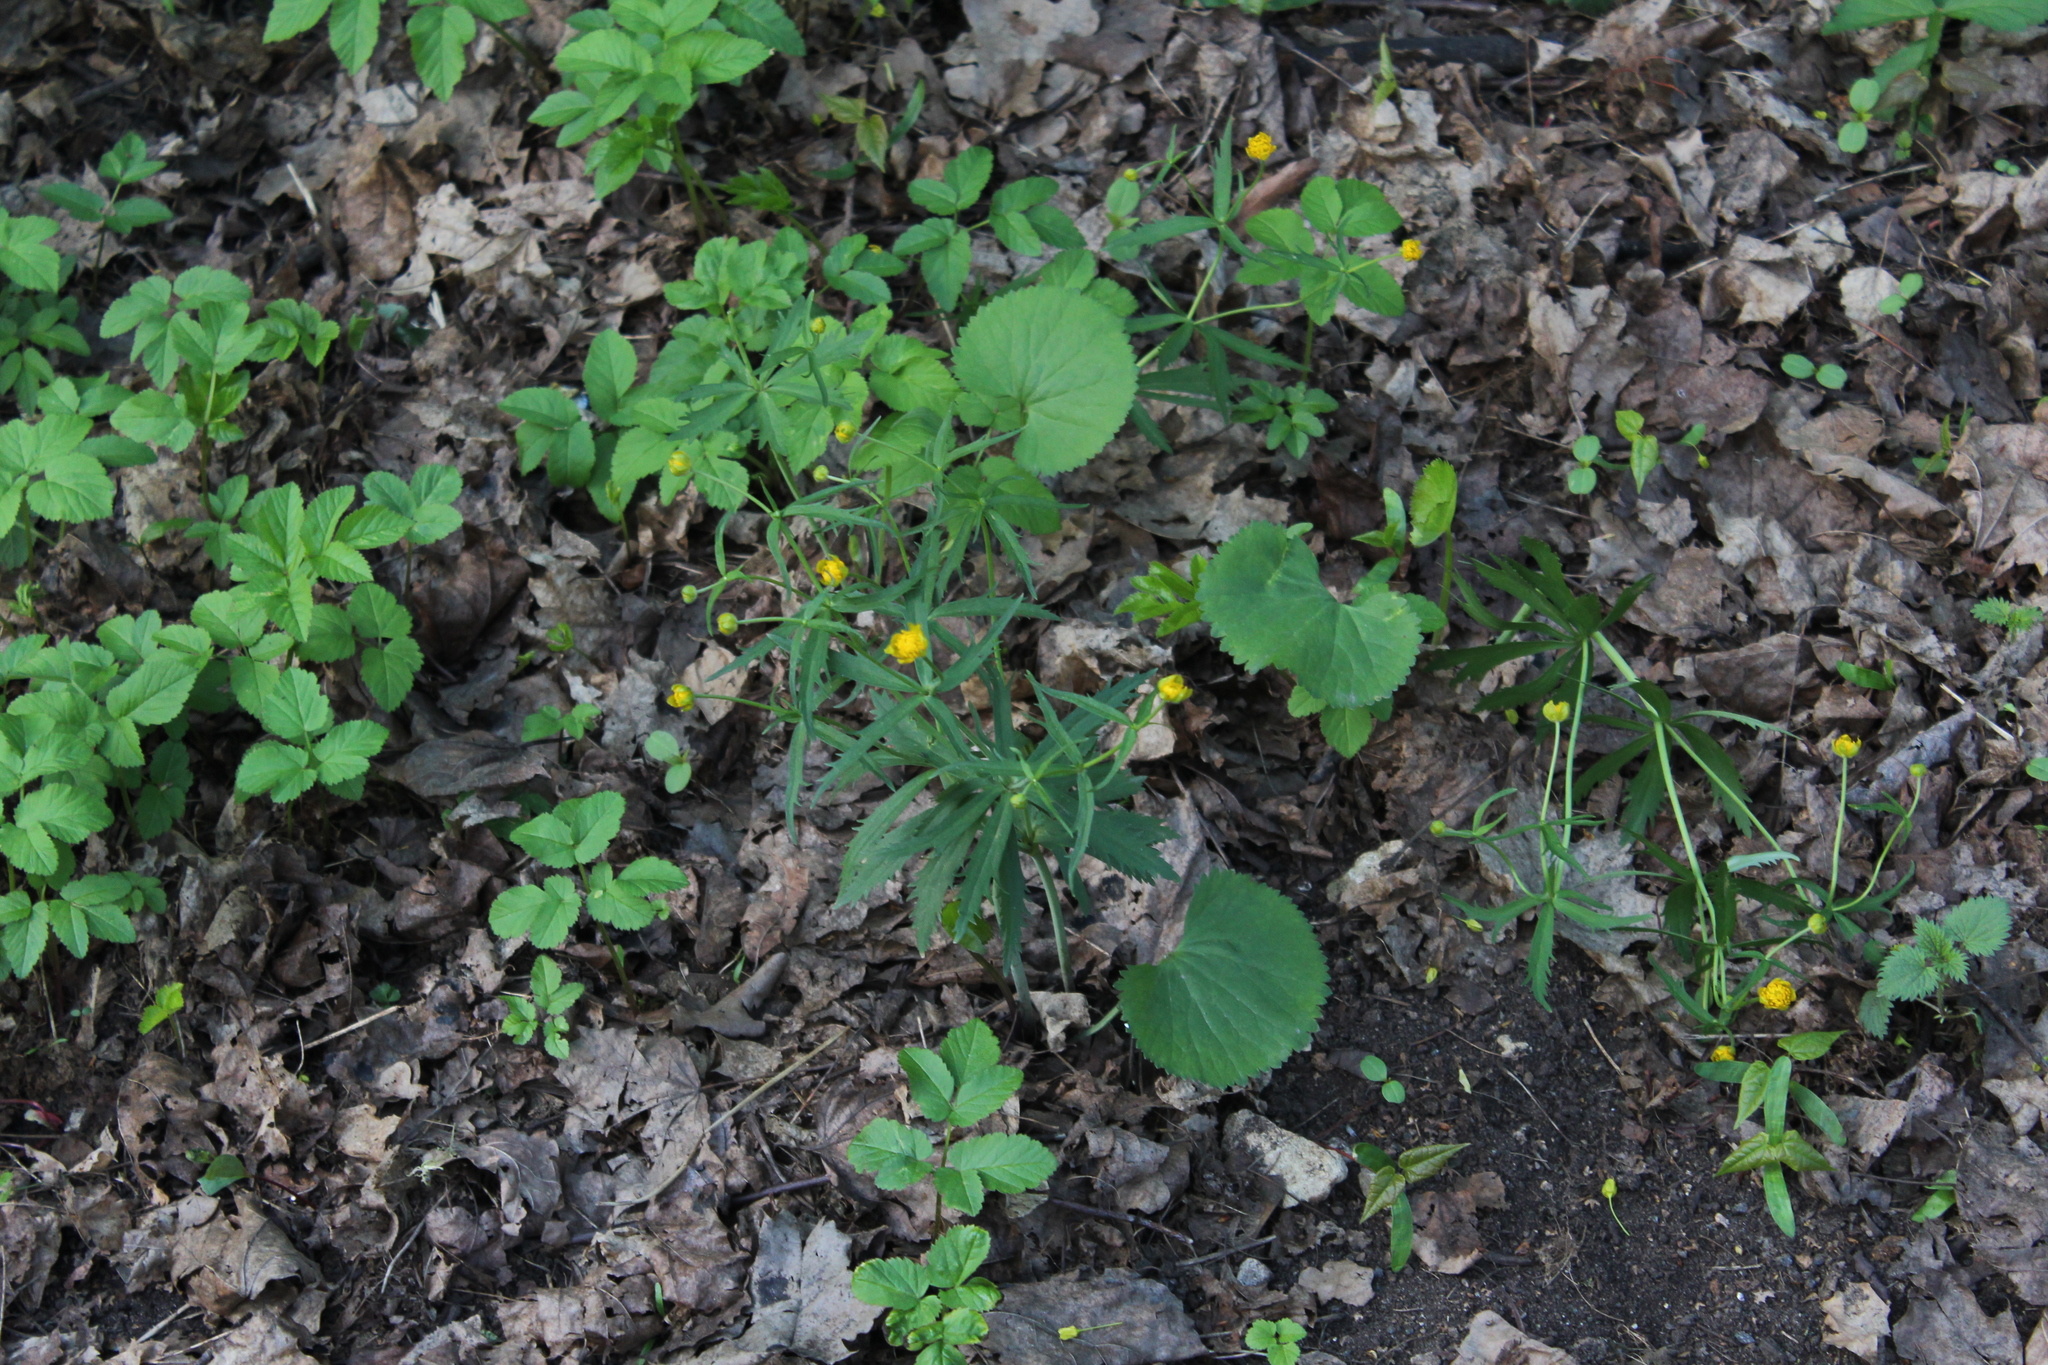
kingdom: Plantae
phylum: Tracheophyta
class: Magnoliopsida
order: Ranunculales
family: Ranunculaceae
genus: Ranunculus
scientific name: Ranunculus cassubicus
